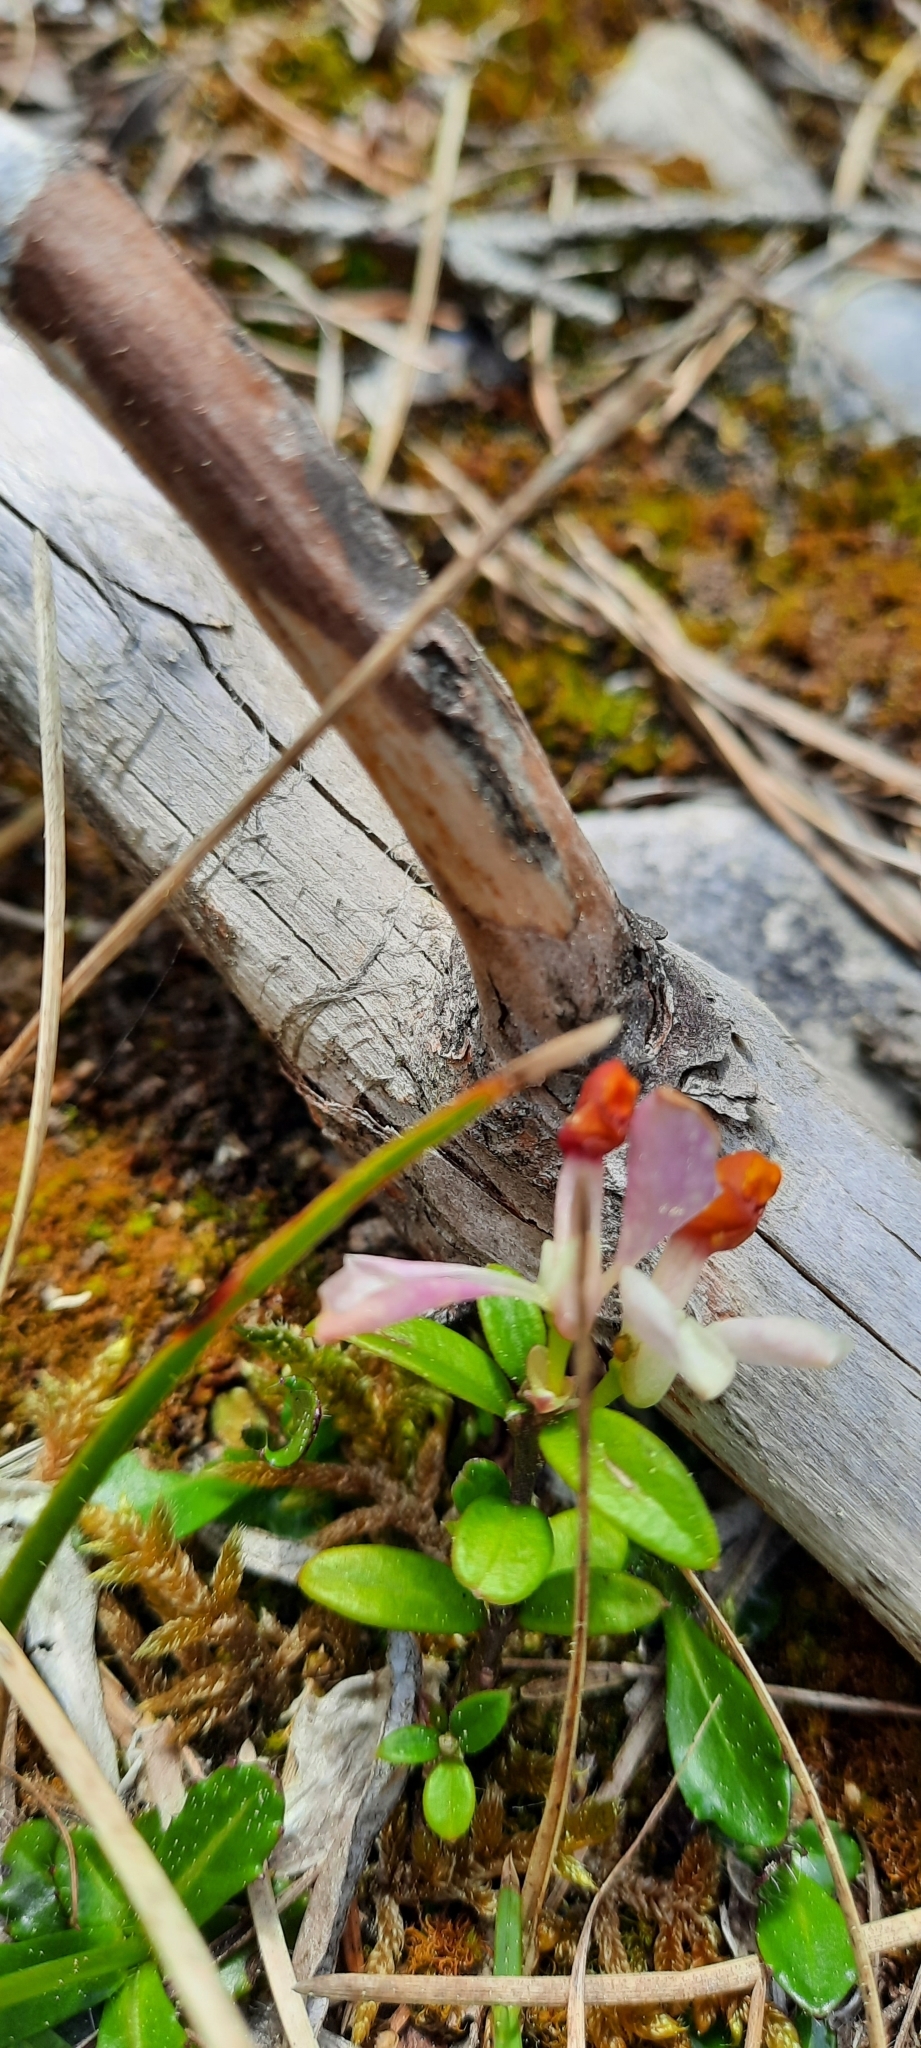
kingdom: Plantae
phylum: Tracheophyta
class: Magnoliopsida
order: Fabales
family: Polygalaceae
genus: Polygaloides
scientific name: Polygaloides chamaebuxus
